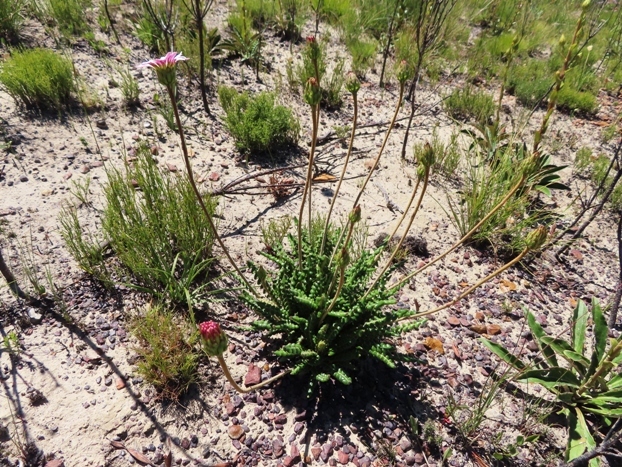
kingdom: Plantae
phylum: Tracheophyta
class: Magnoliopsida
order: Asterales
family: Asteraceae
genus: Gerbera
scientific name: Gerbera linnaei
